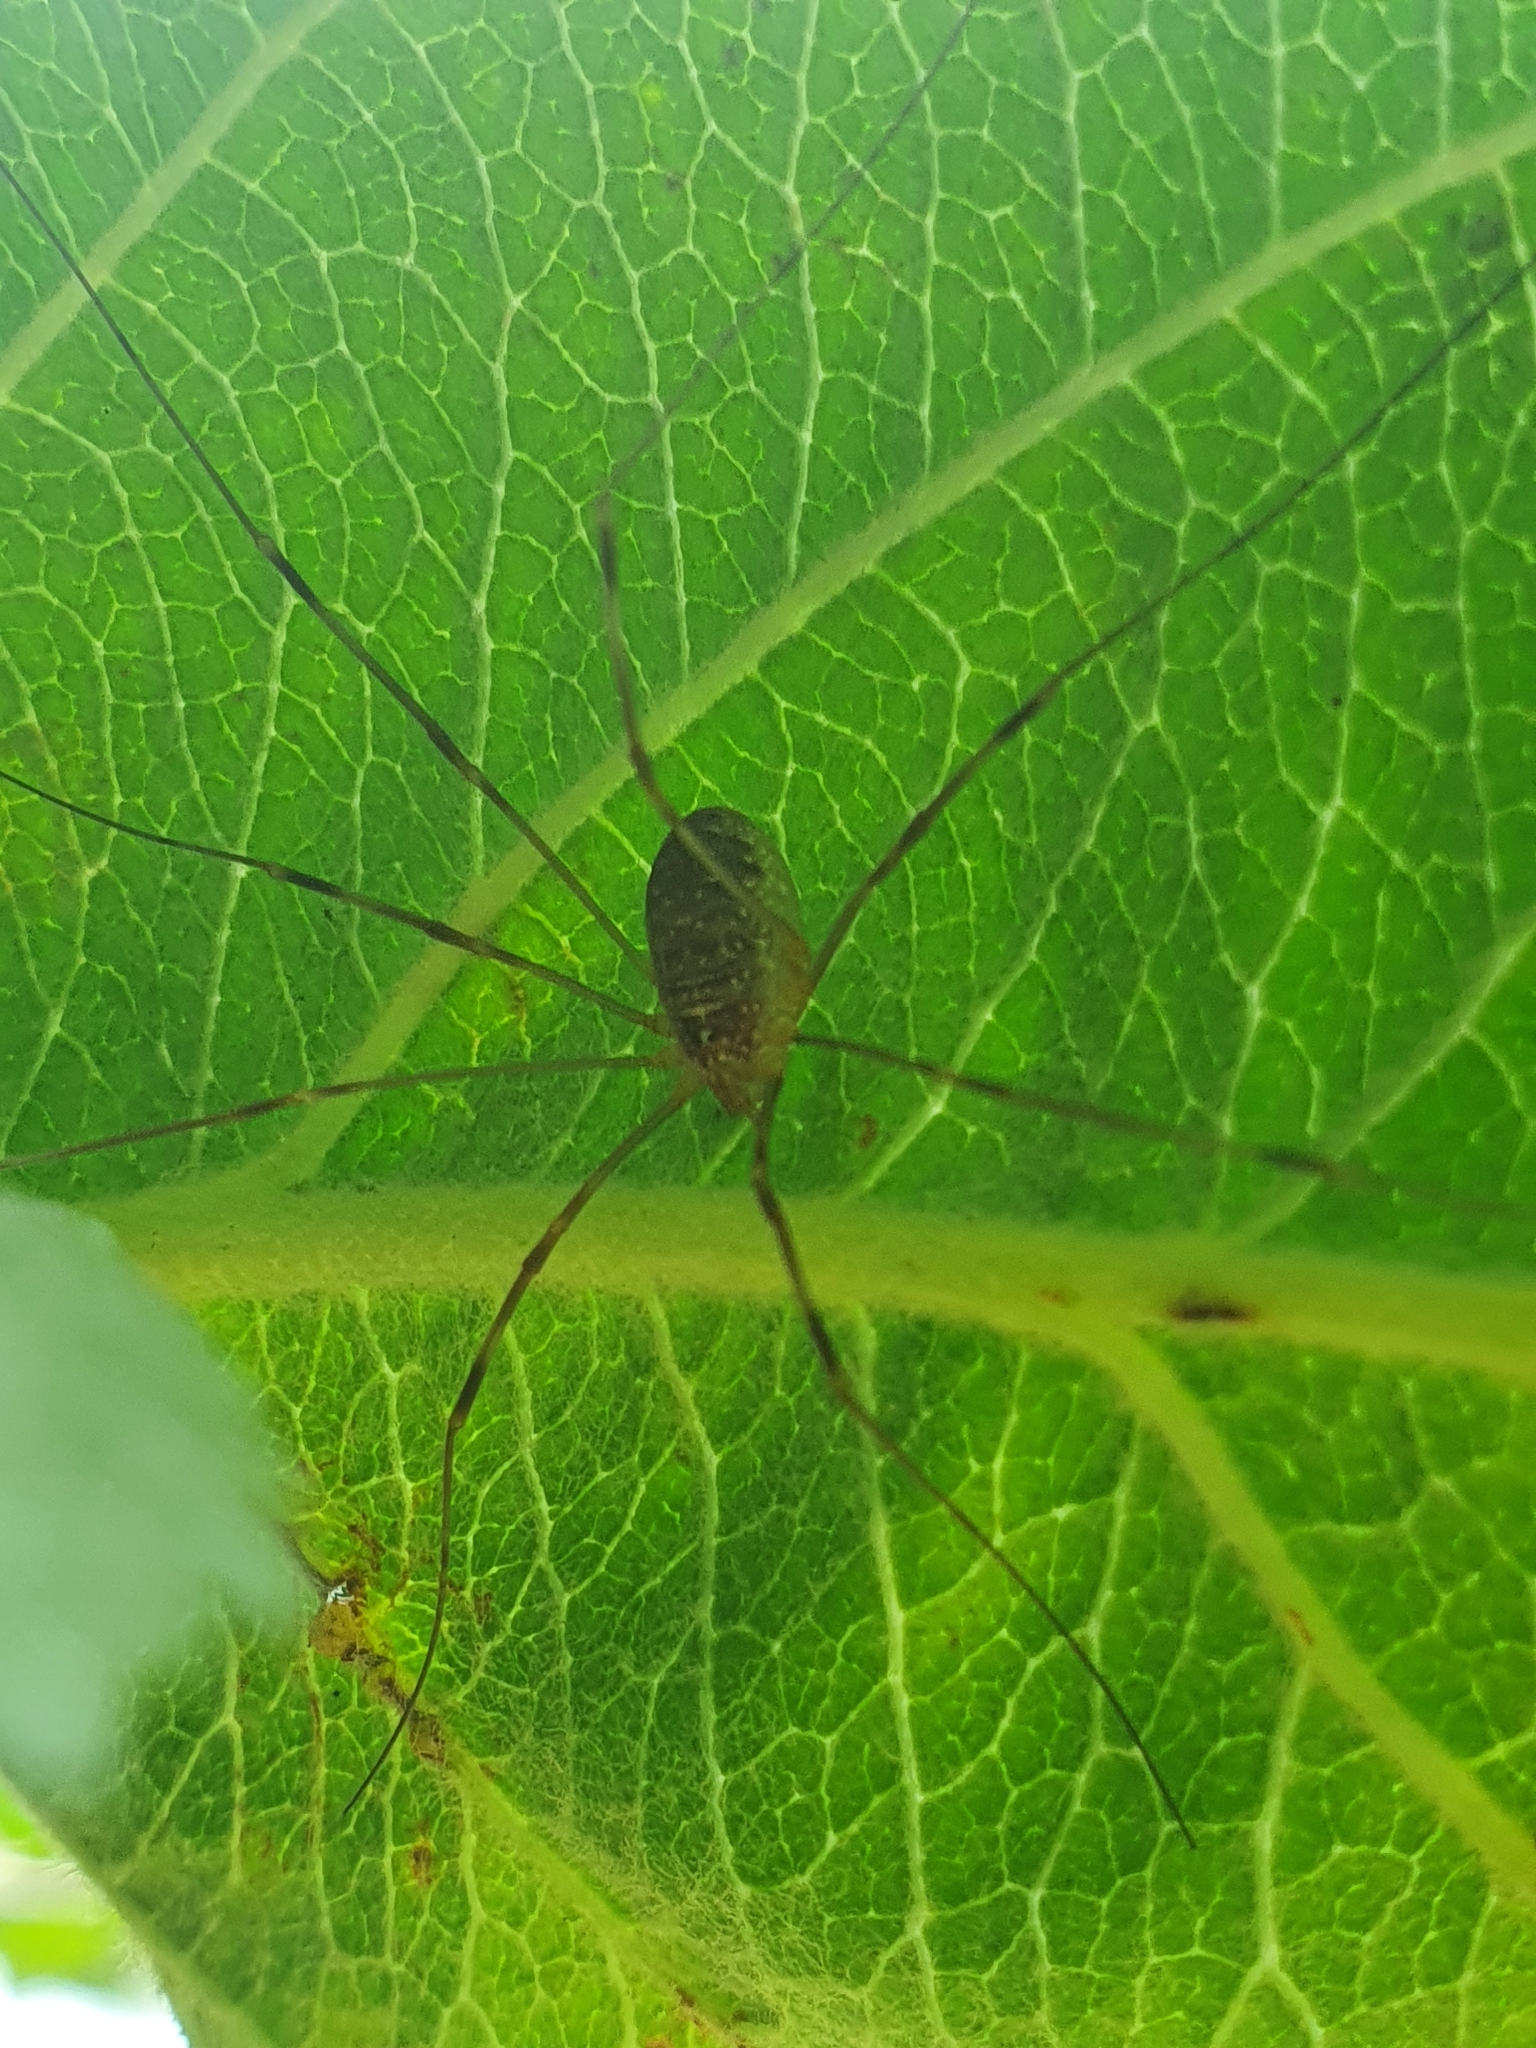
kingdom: Animalia
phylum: Arthropoda
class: Arachnida
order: Opiliones
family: Phalangiidae
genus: Opilio
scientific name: Opilio canestrinii
